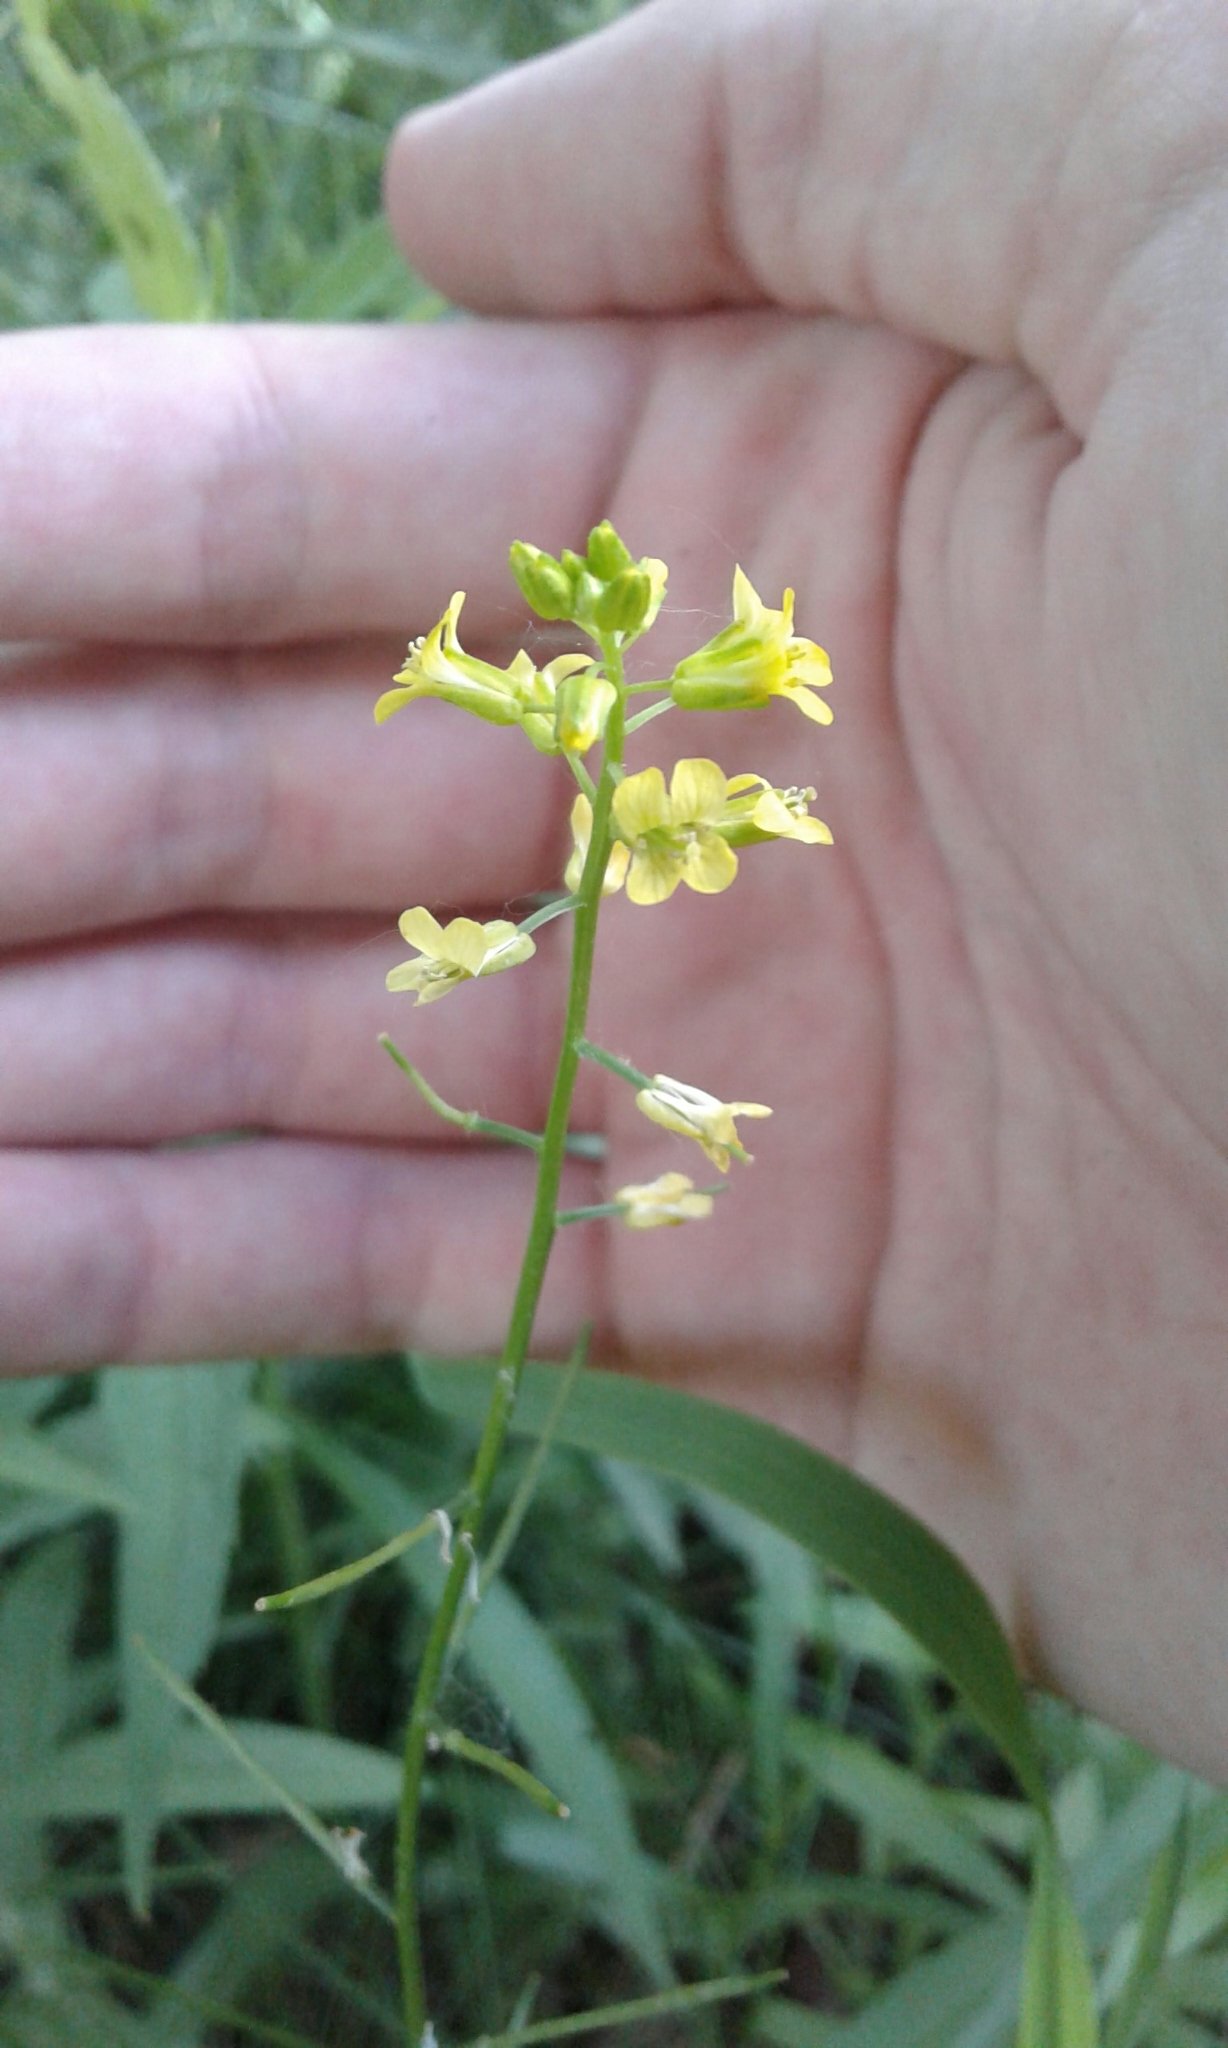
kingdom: Plantae
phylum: Tracheophyta
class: Magnoliopsida
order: Brassicales
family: Brassicaceae
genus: Barbarea
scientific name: Barbarea vulgaris
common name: Cressy-greens
